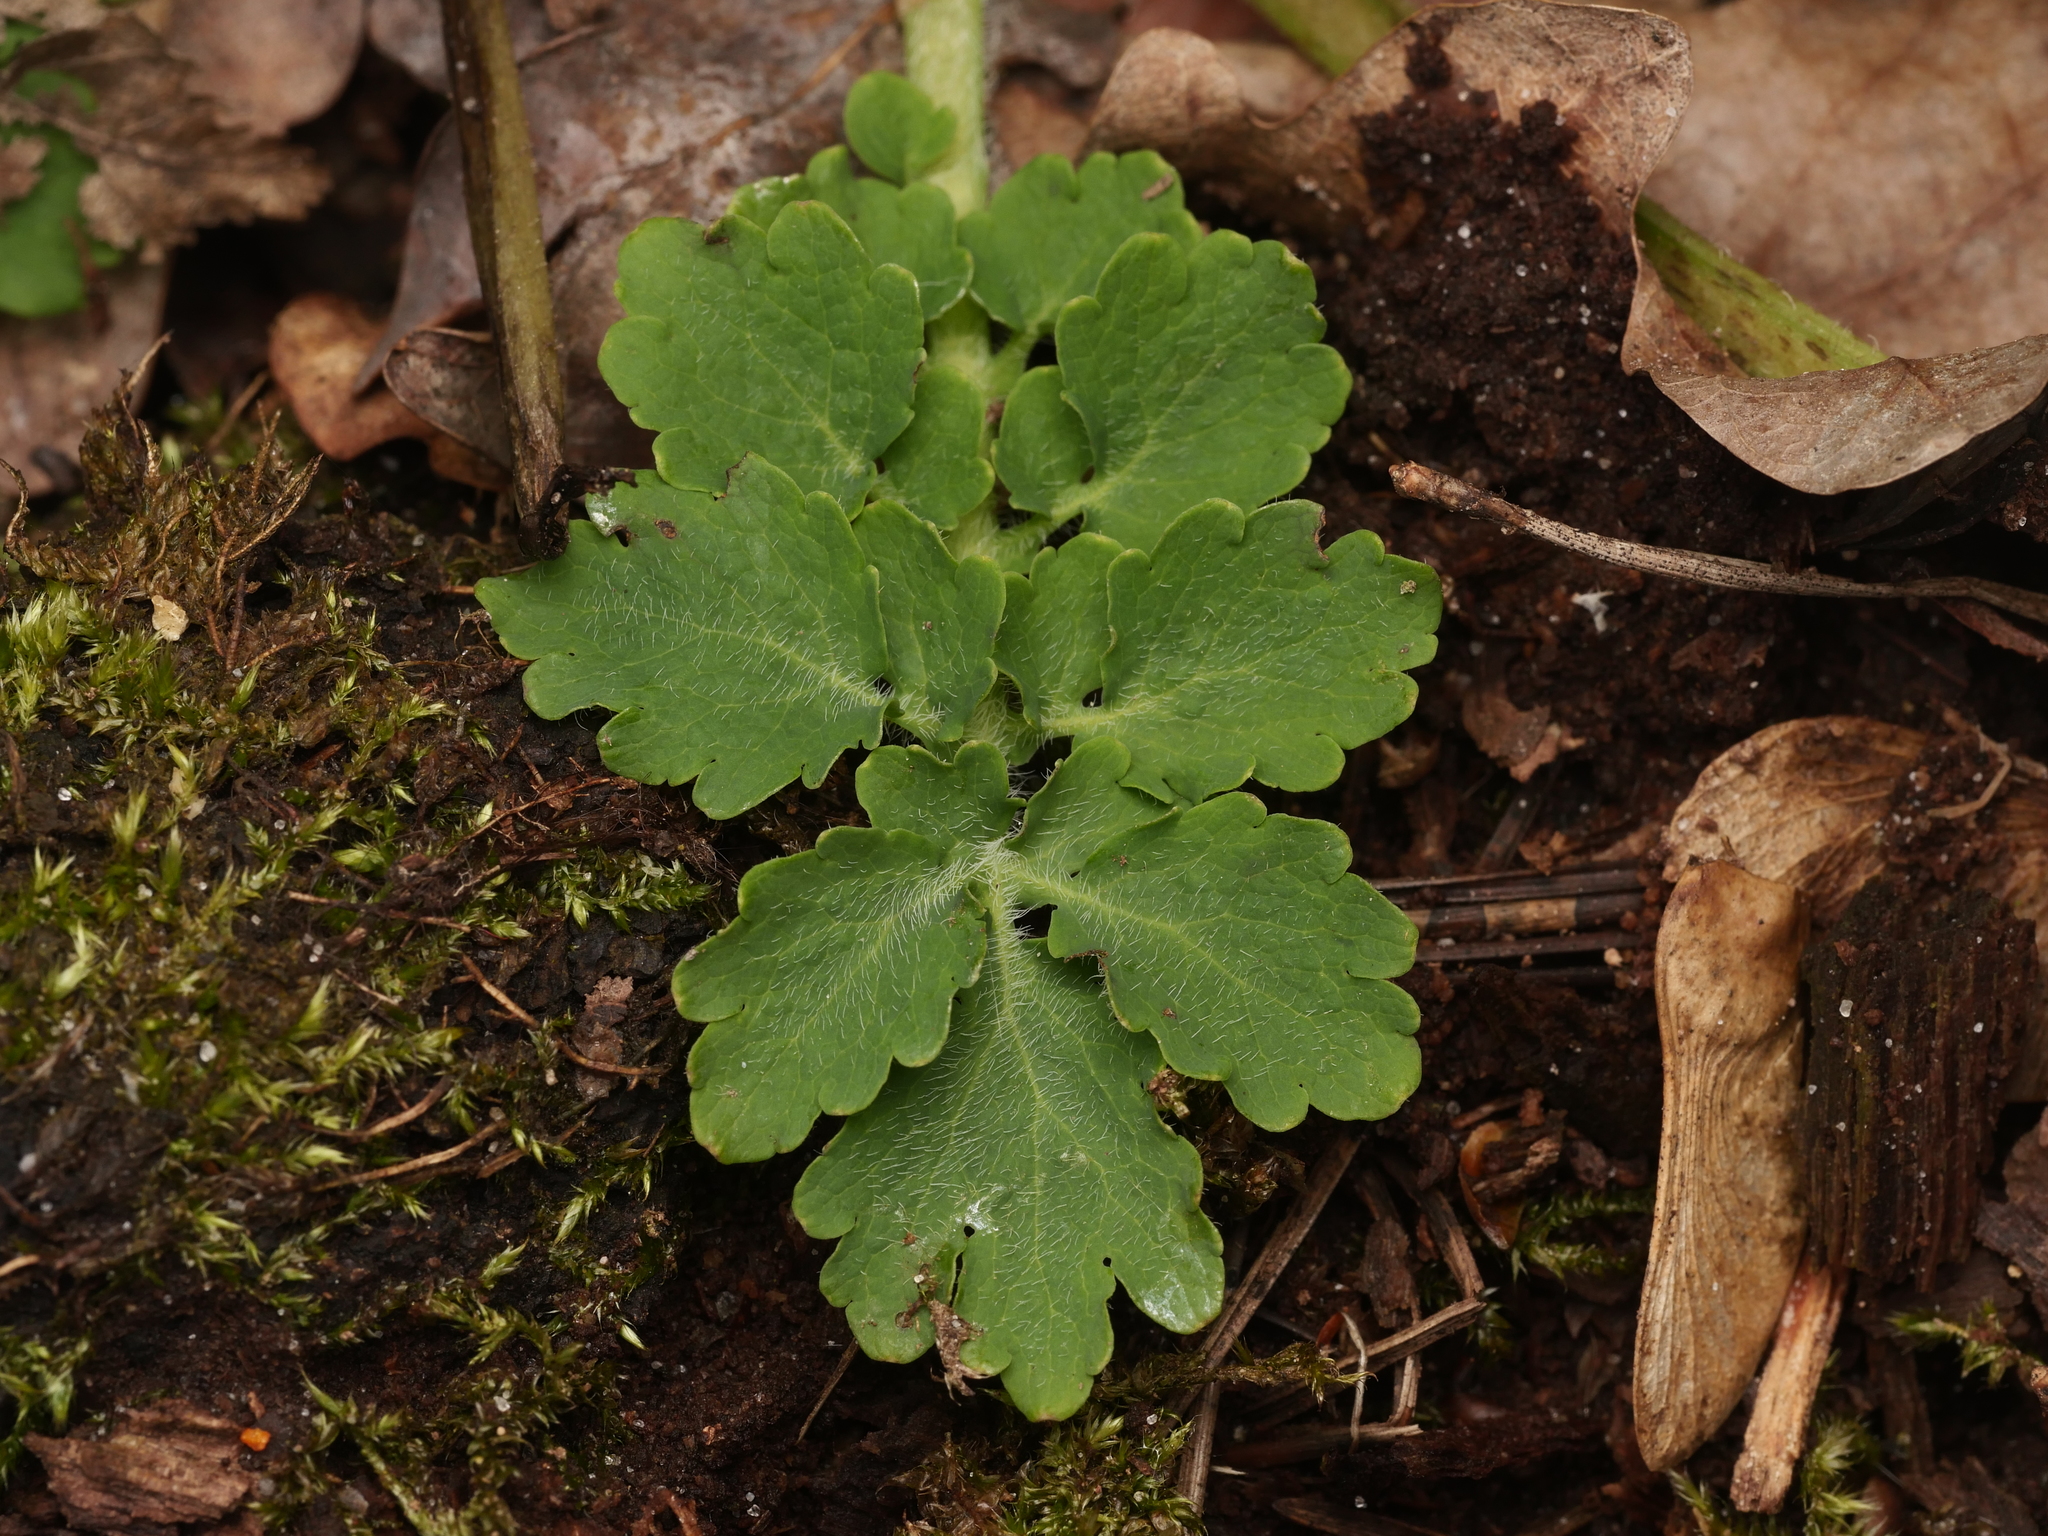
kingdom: Plantae
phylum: Tracheophyta
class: Magnoliopsida
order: Ranunculales
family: Papaveraceae
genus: Chelidonium
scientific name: Chelidonium majus
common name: Greater celandine
